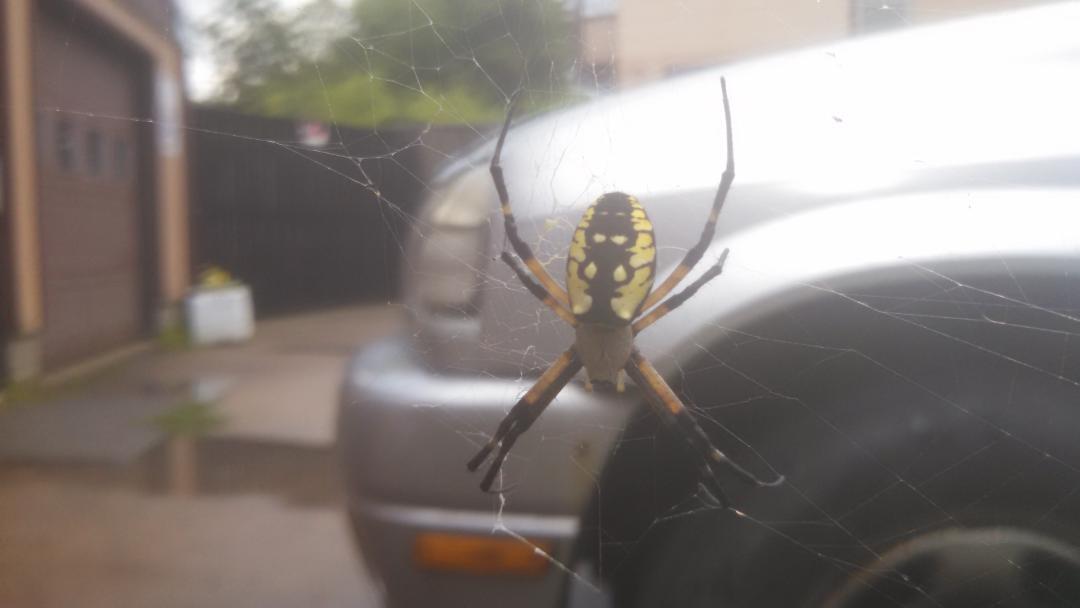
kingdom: Animalia
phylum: Arthropoda
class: Arachnida
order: Araneae
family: Araneidae
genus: Argiope
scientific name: Argiope aurantia
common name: Orb weavers
